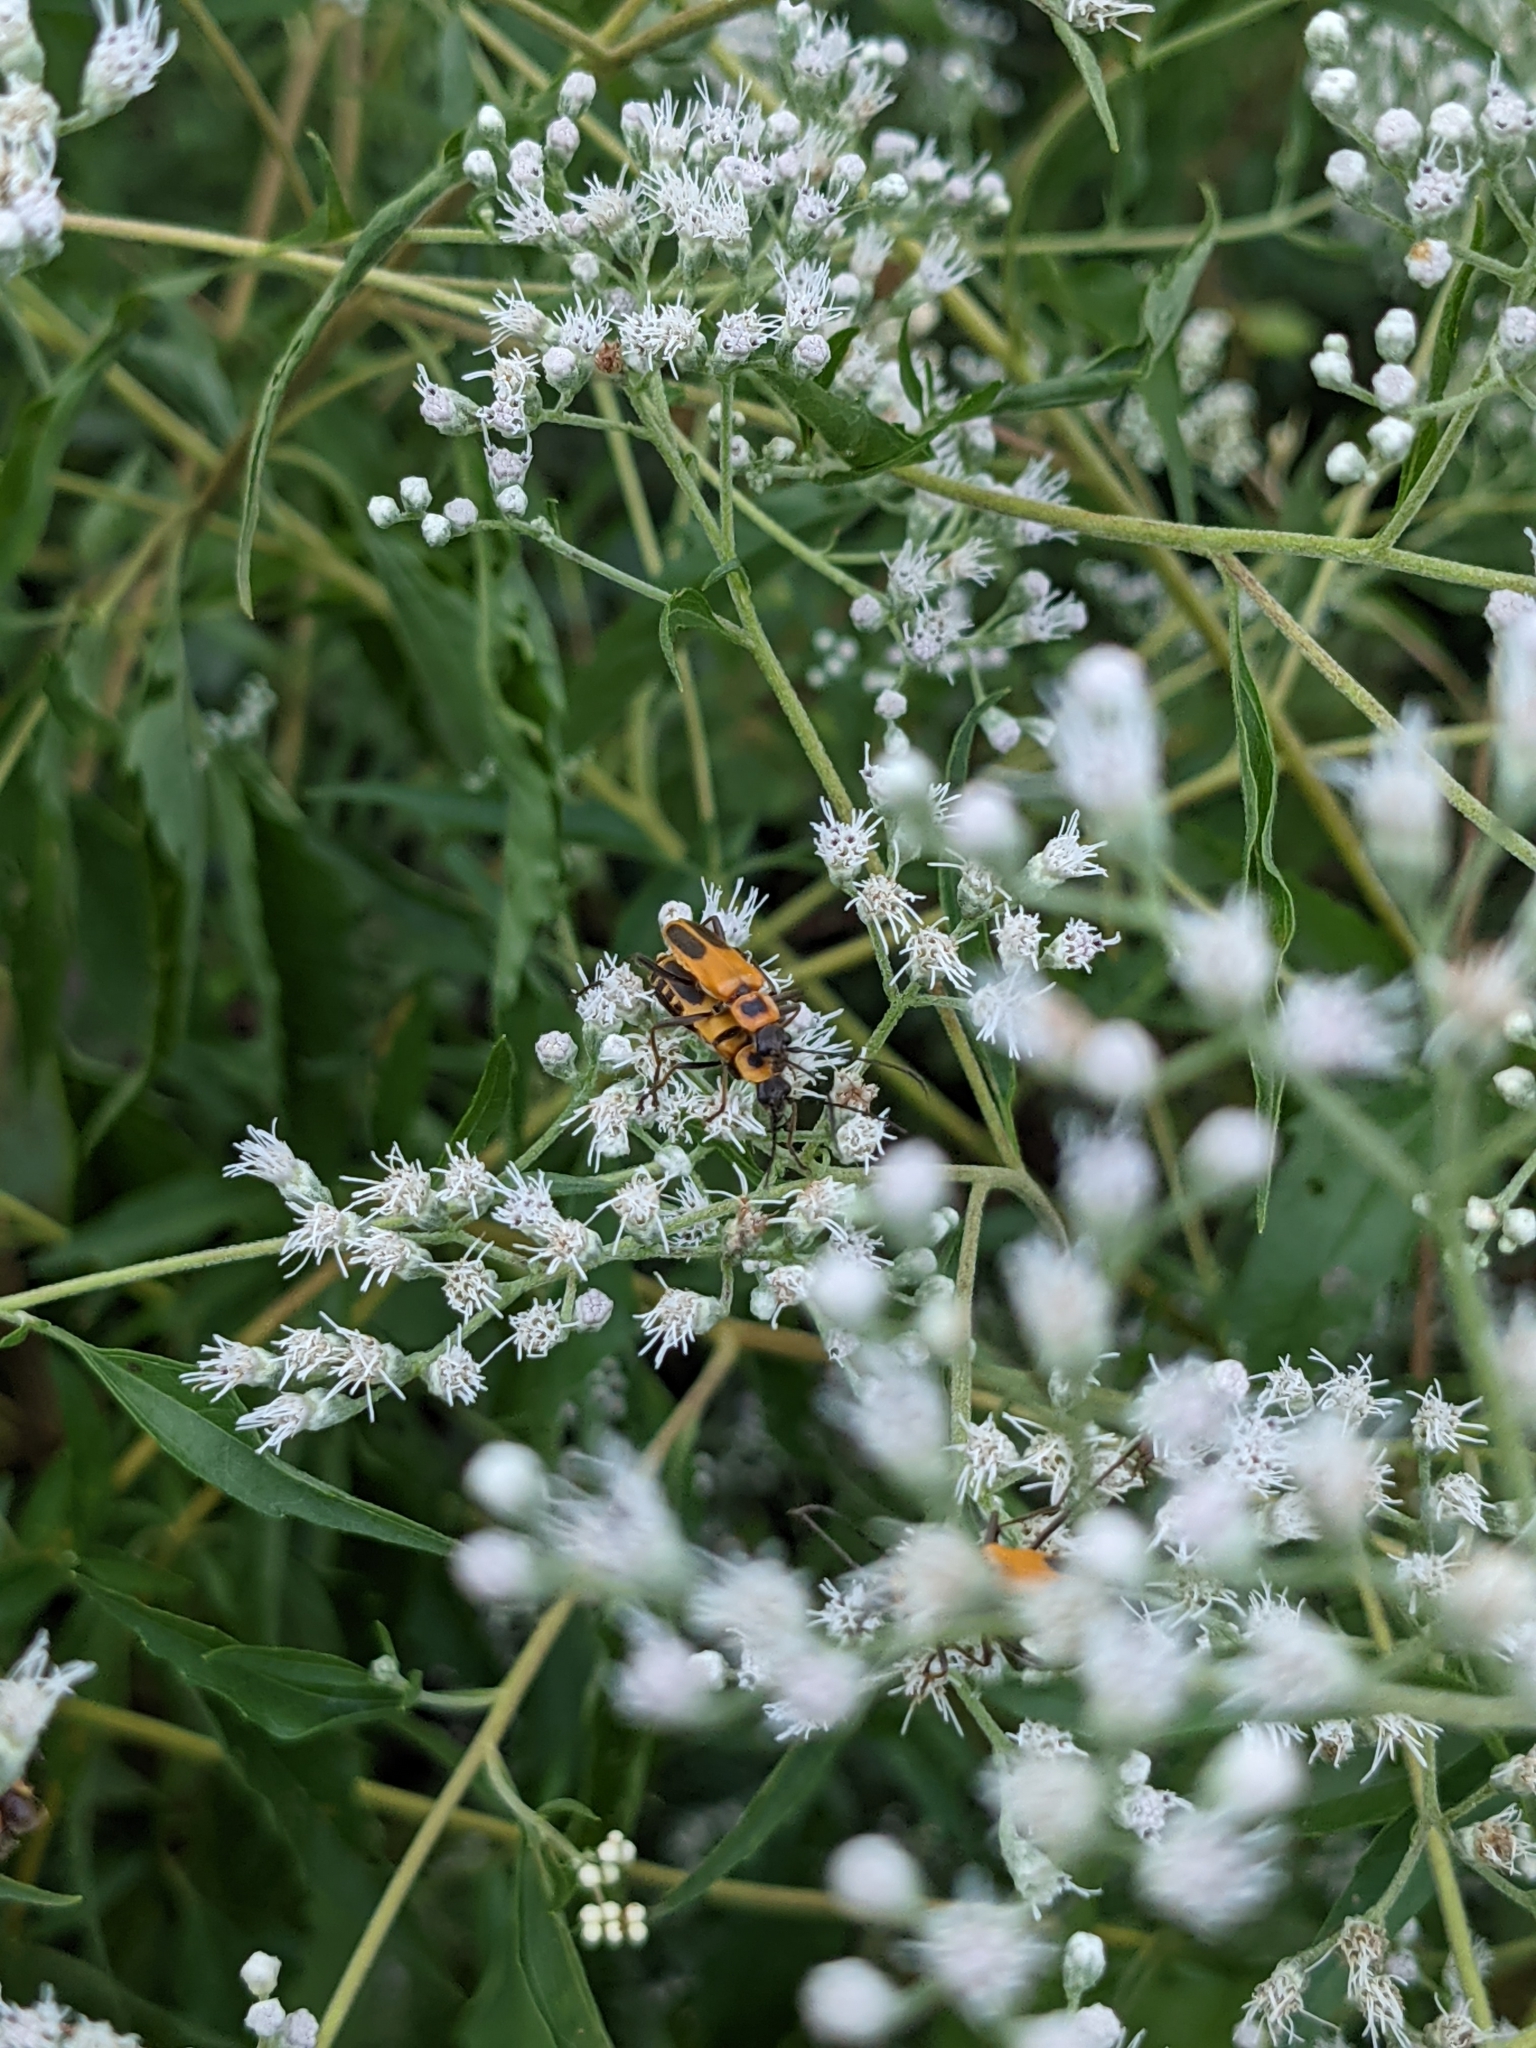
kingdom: Animalia
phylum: Arthropoda
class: Insecta
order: Coleoptera
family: Cantharidae
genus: Chauliognathus
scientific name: Chauliognathus pensylvanicus
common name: Goldenrod soldier beetle
